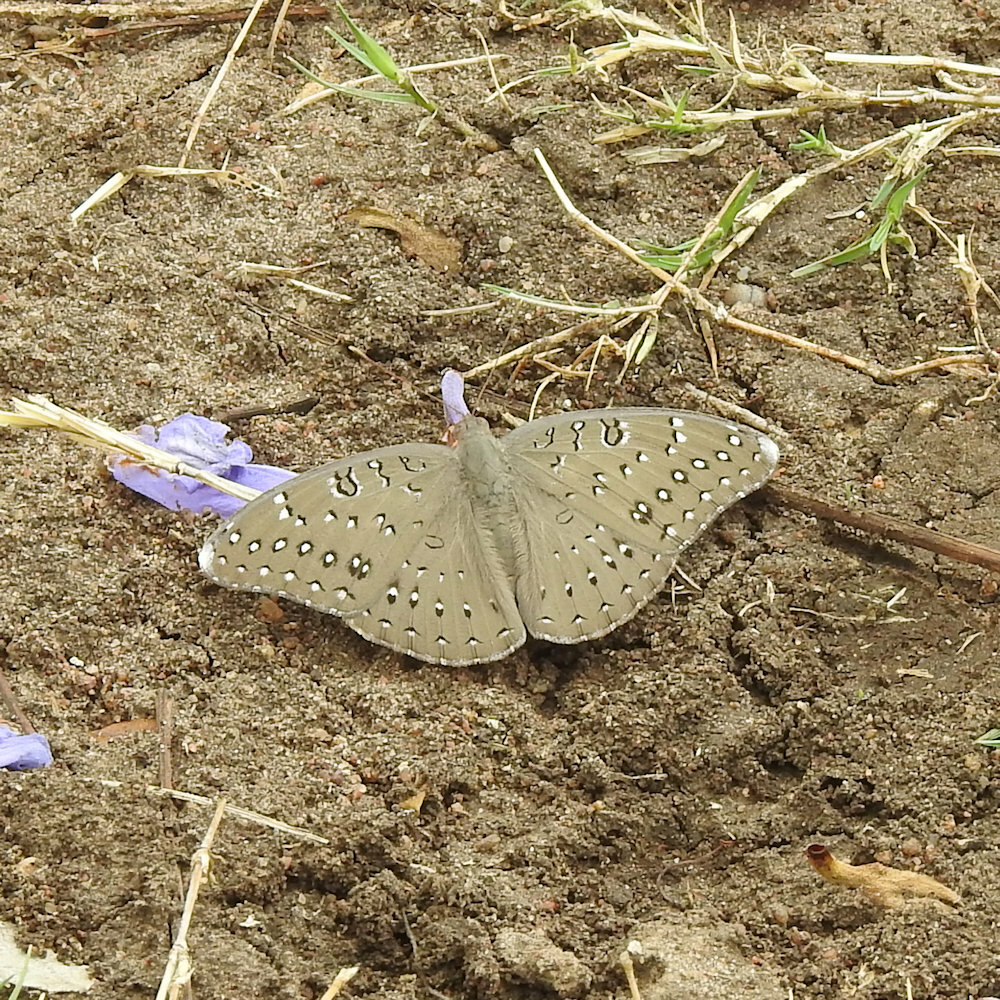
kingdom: Animalia
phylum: Arthropoda
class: Insecta
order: Lepidoptera
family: Nymphalidae
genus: Hamanumida
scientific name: Hamanumida daedalus
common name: Guinea-fowl butterfly
